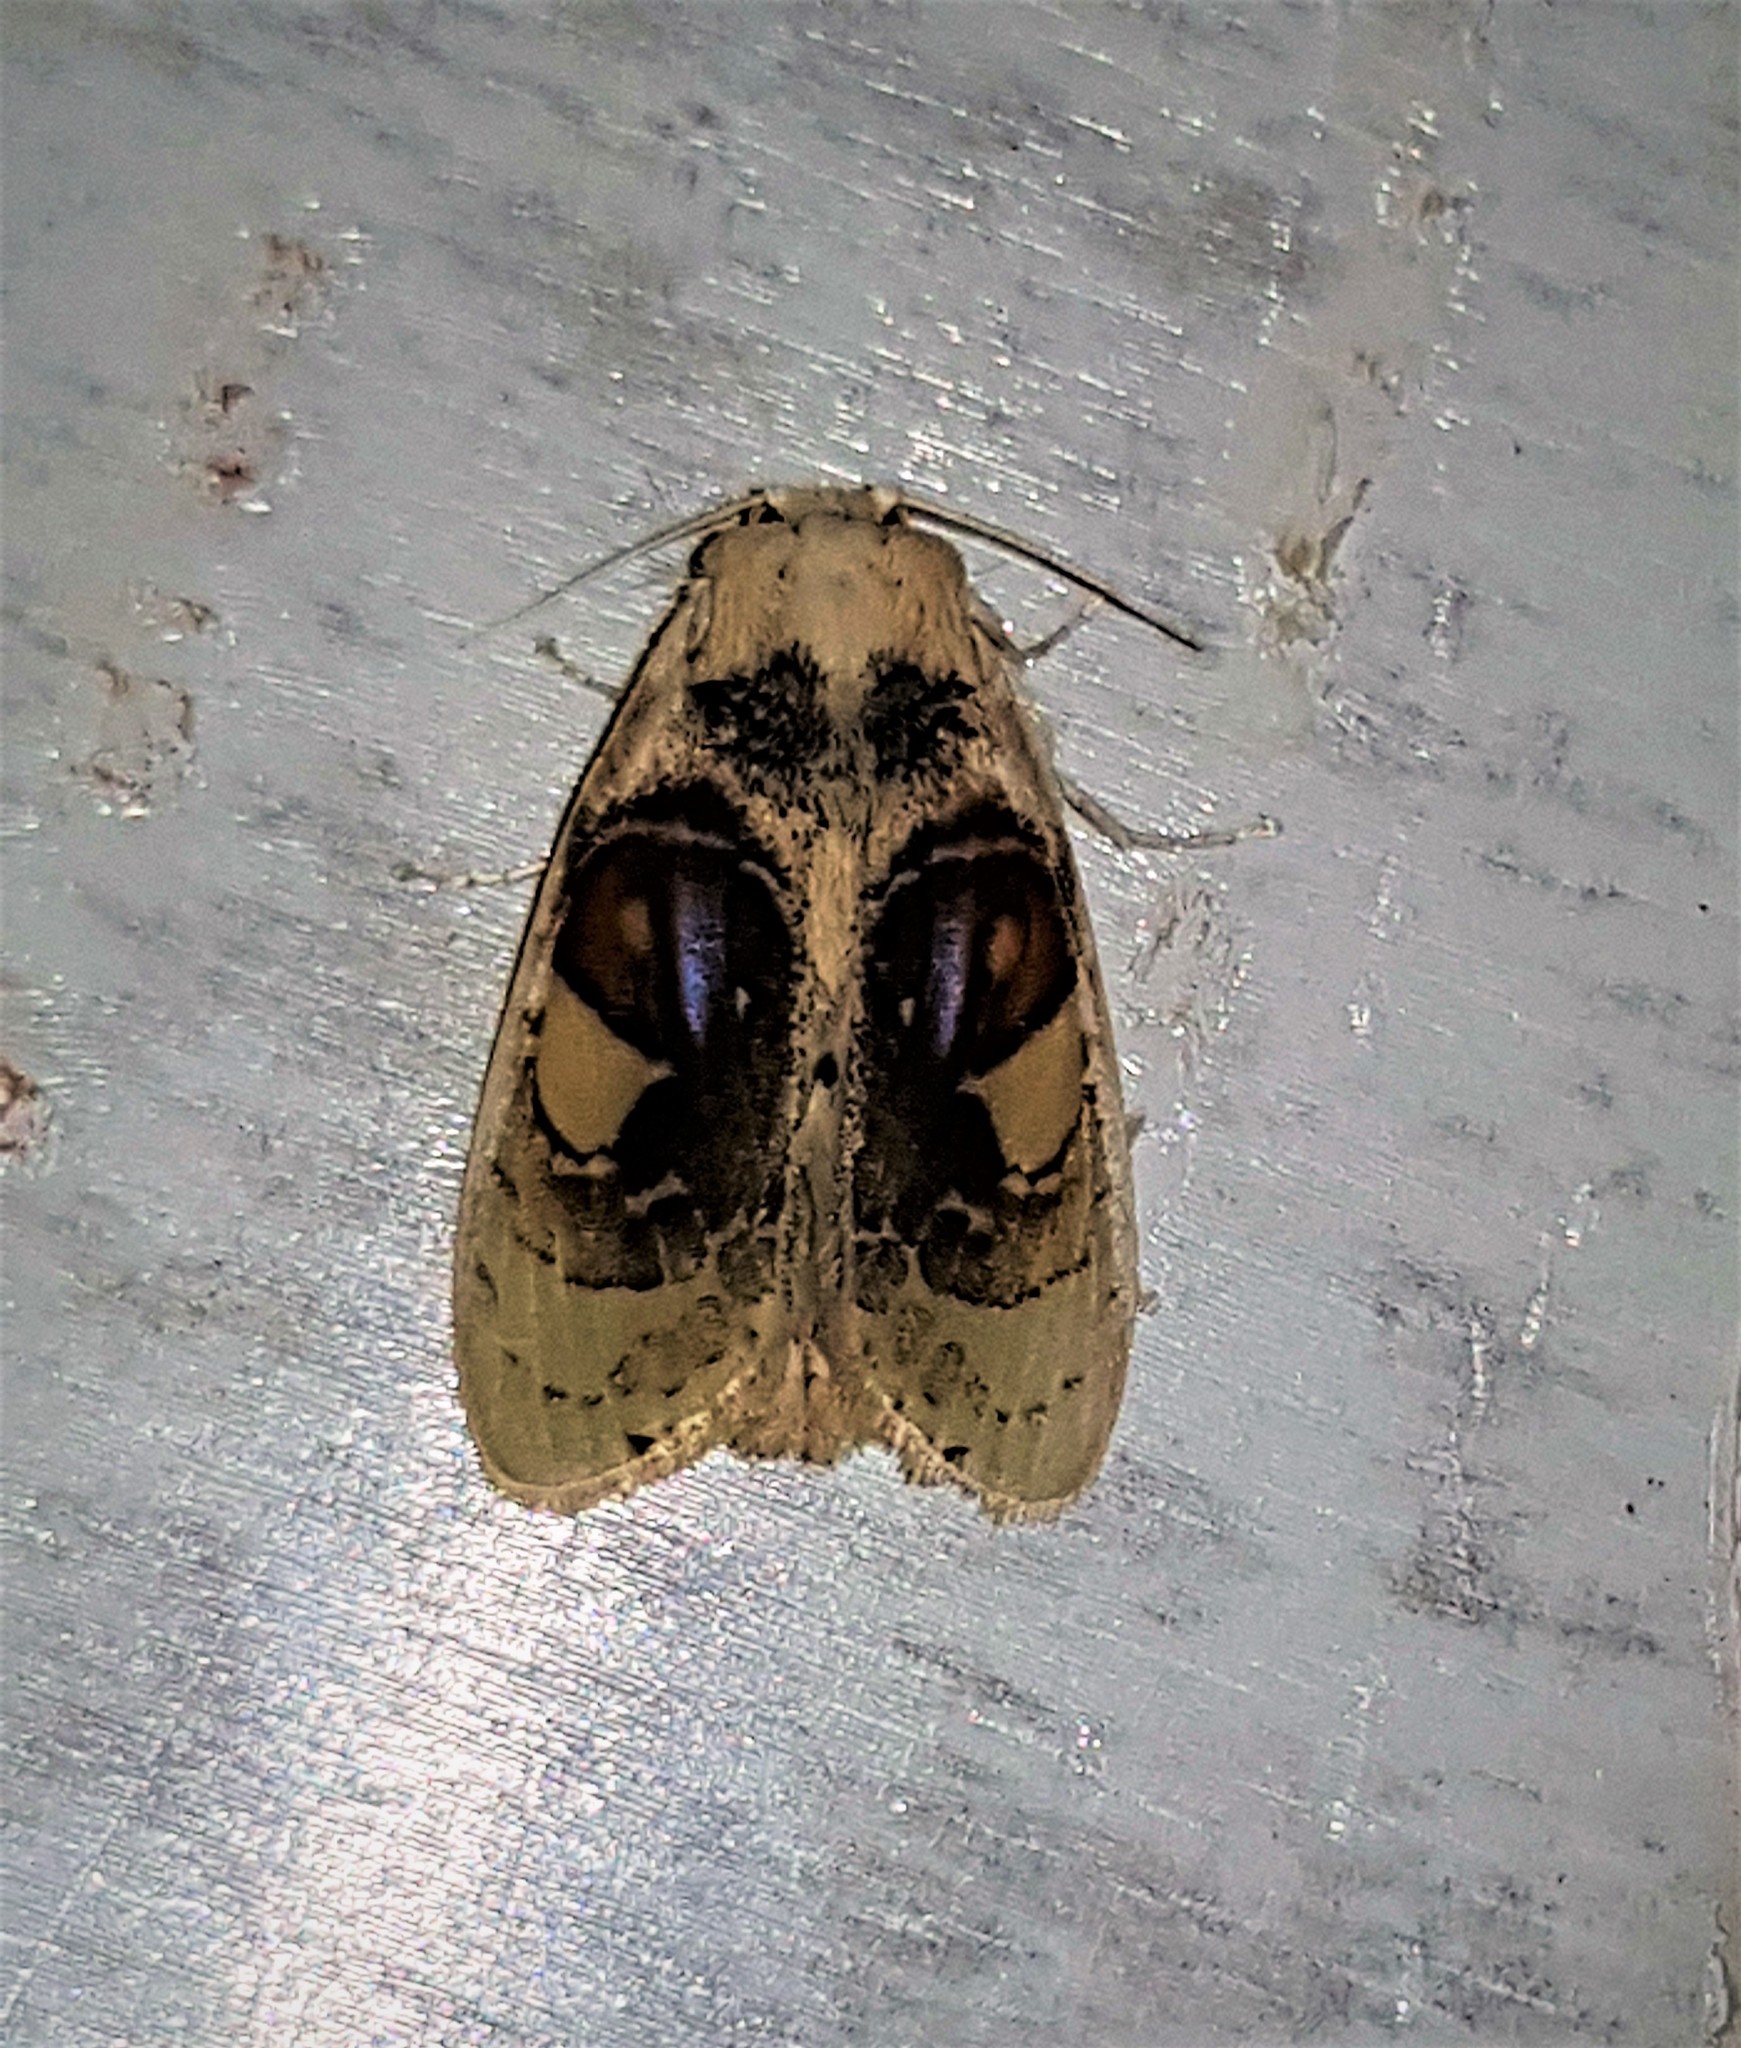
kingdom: Animalia
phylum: Arthropoda
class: Insecta
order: Lepidoptera
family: Psychidae
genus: Arrhenophanes
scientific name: Arrhenophanes perspicilla
